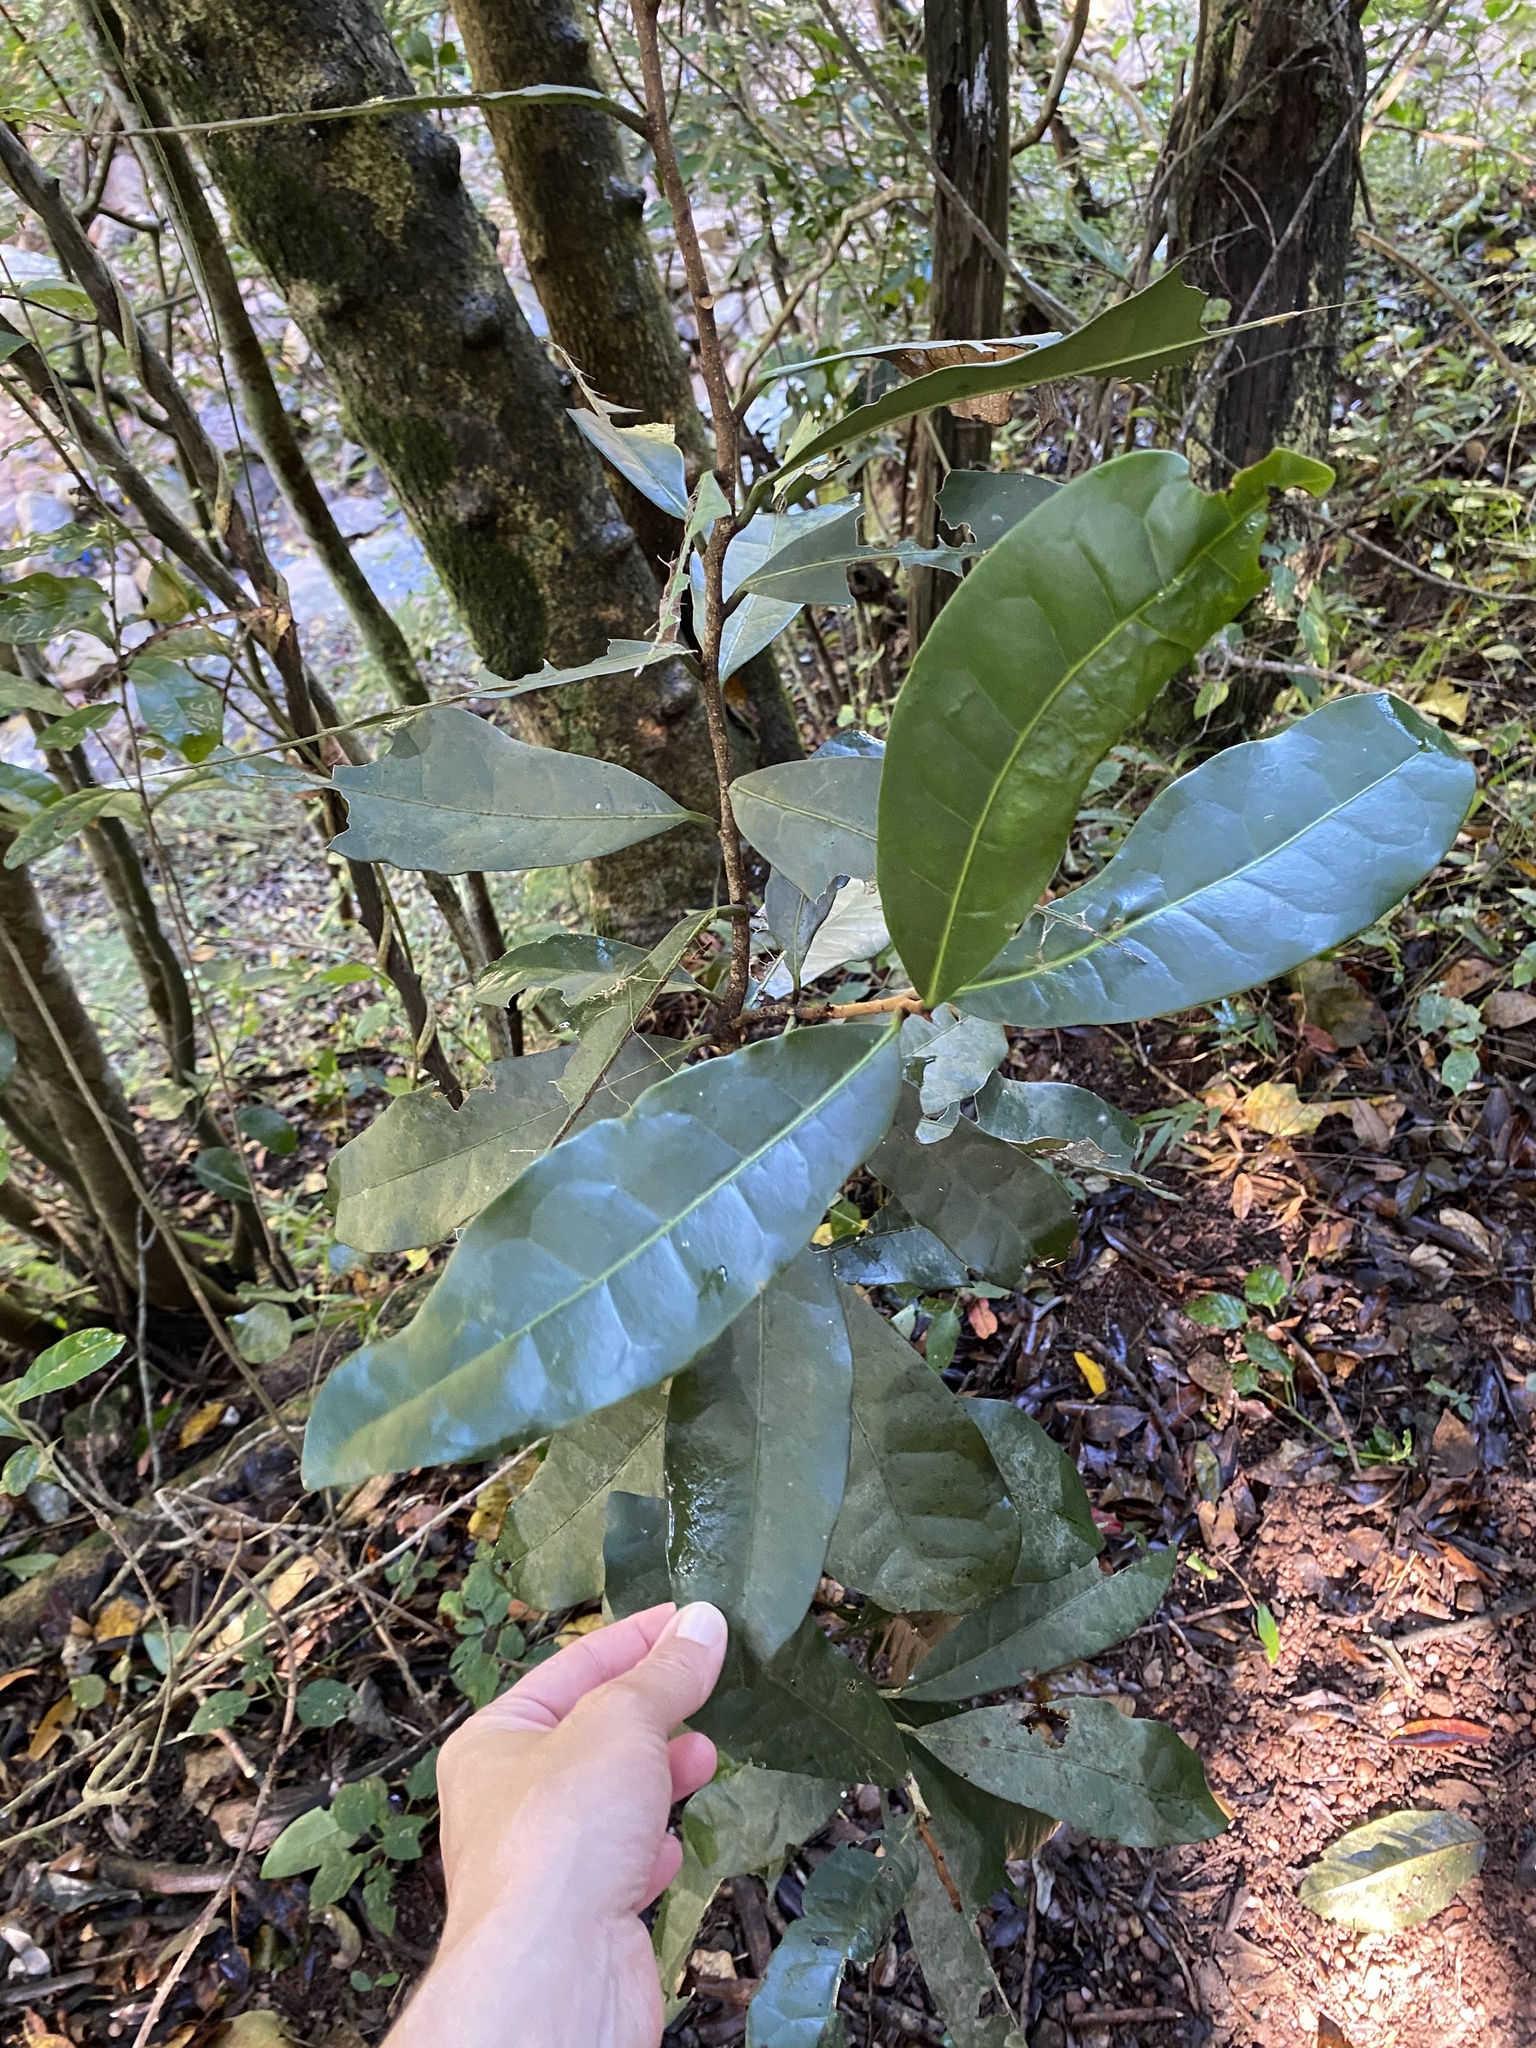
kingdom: Plantae
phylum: Tracheophyta
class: Magnoliopsida
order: Malpighiales
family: Malpighiaceae
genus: Acridocarpus
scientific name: Acridocarpus natalitius
